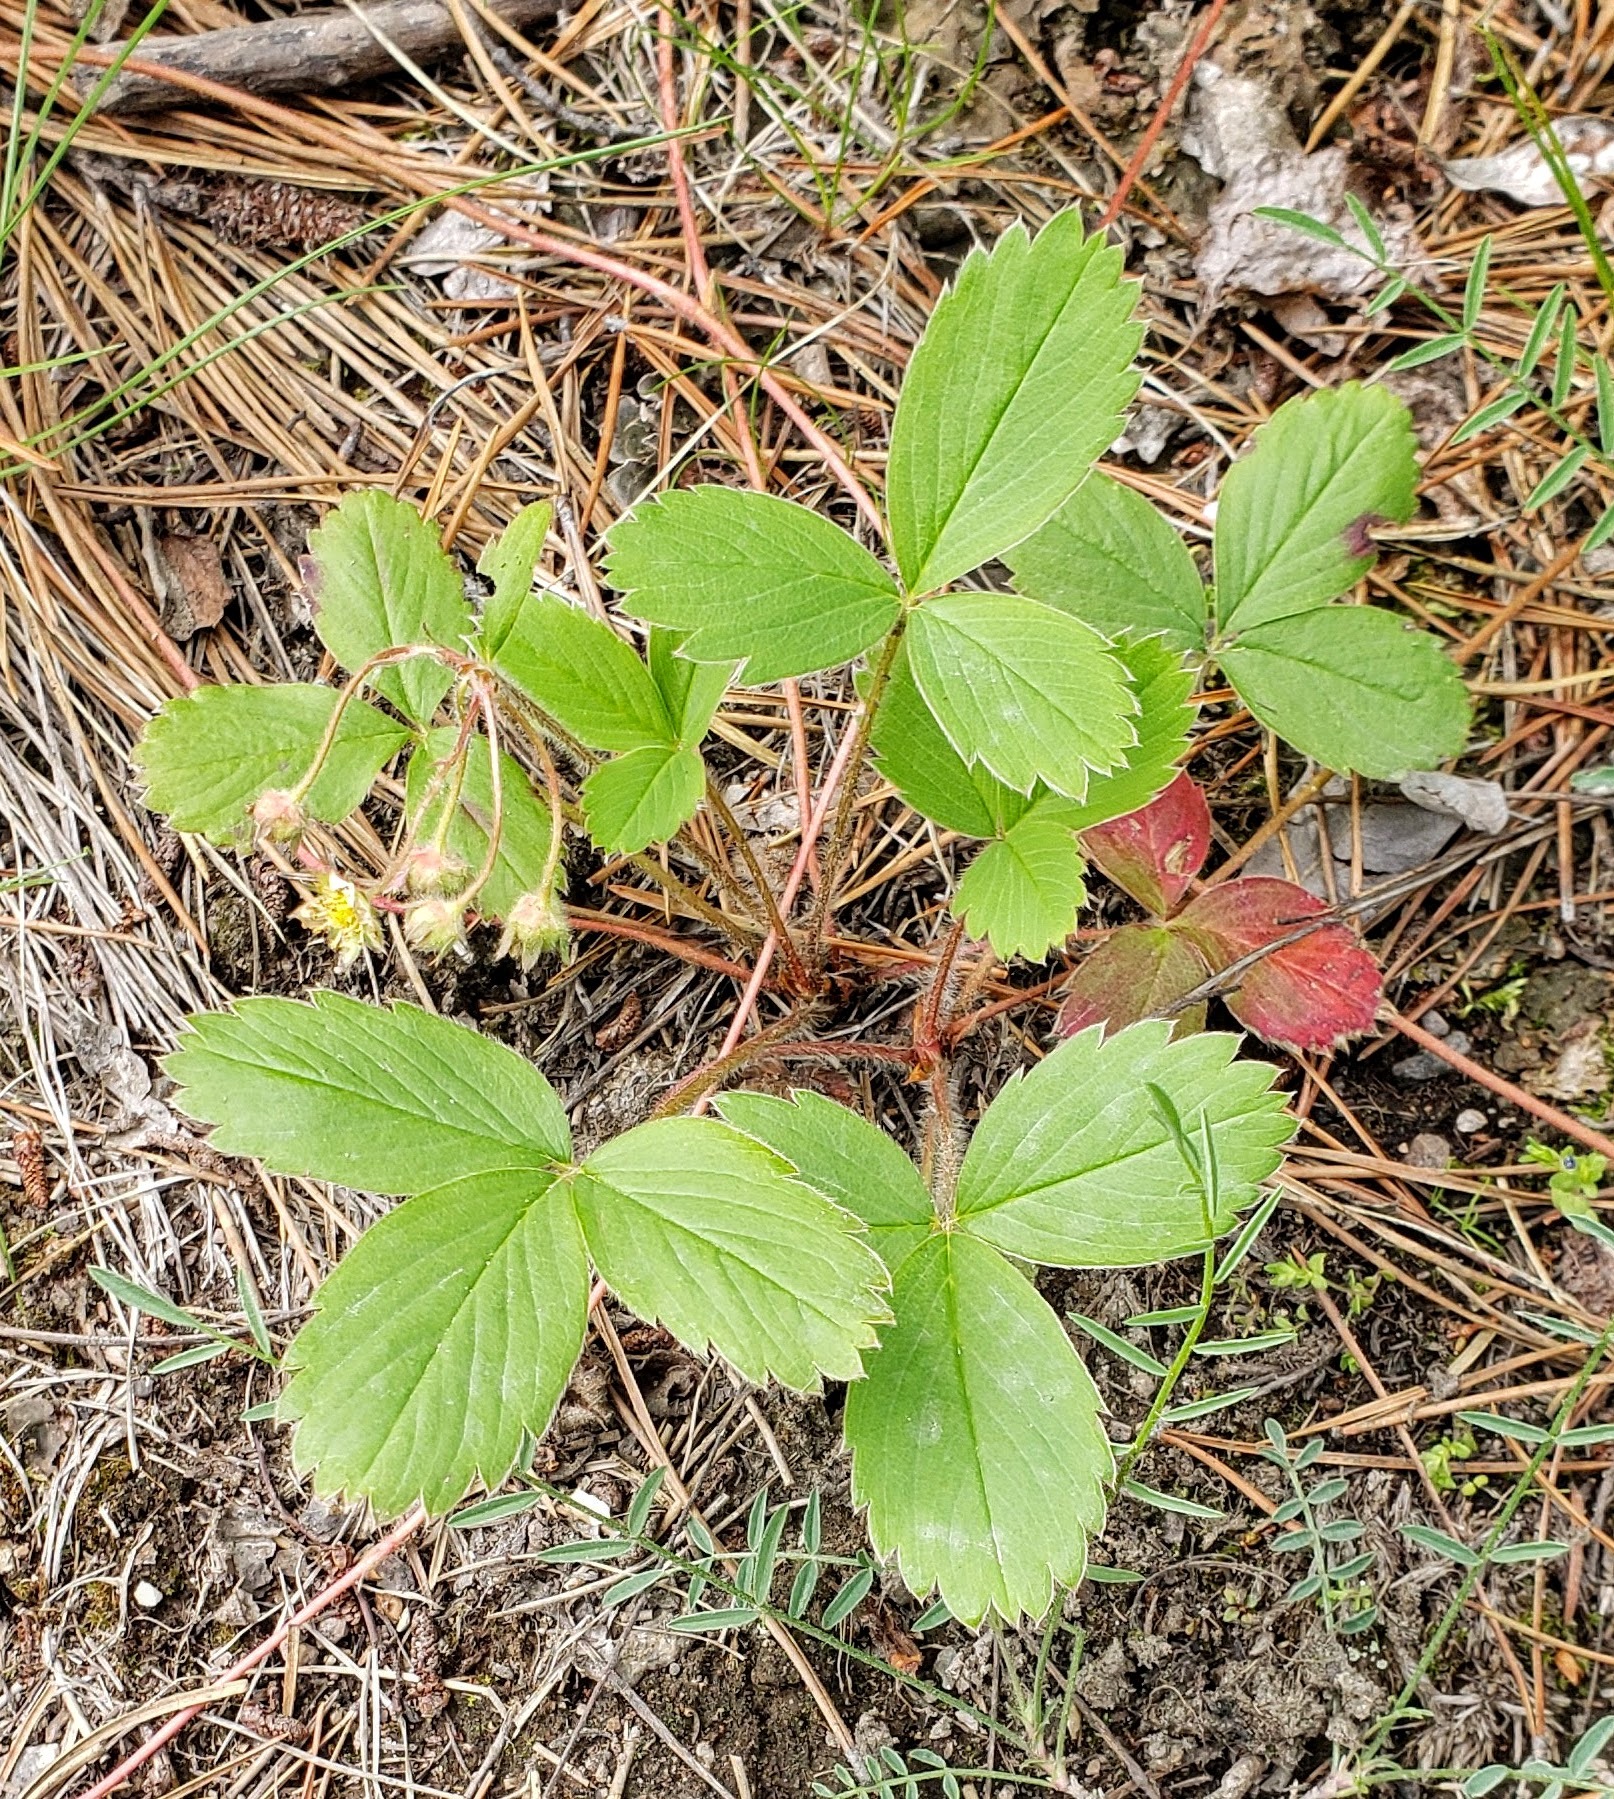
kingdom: Plantae
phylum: Tracheophyta
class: Magnoliopsida
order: Rosales
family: Rosaceae
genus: Fragaria
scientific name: Fragaria virginiana
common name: Thickleaved wild strawberry
